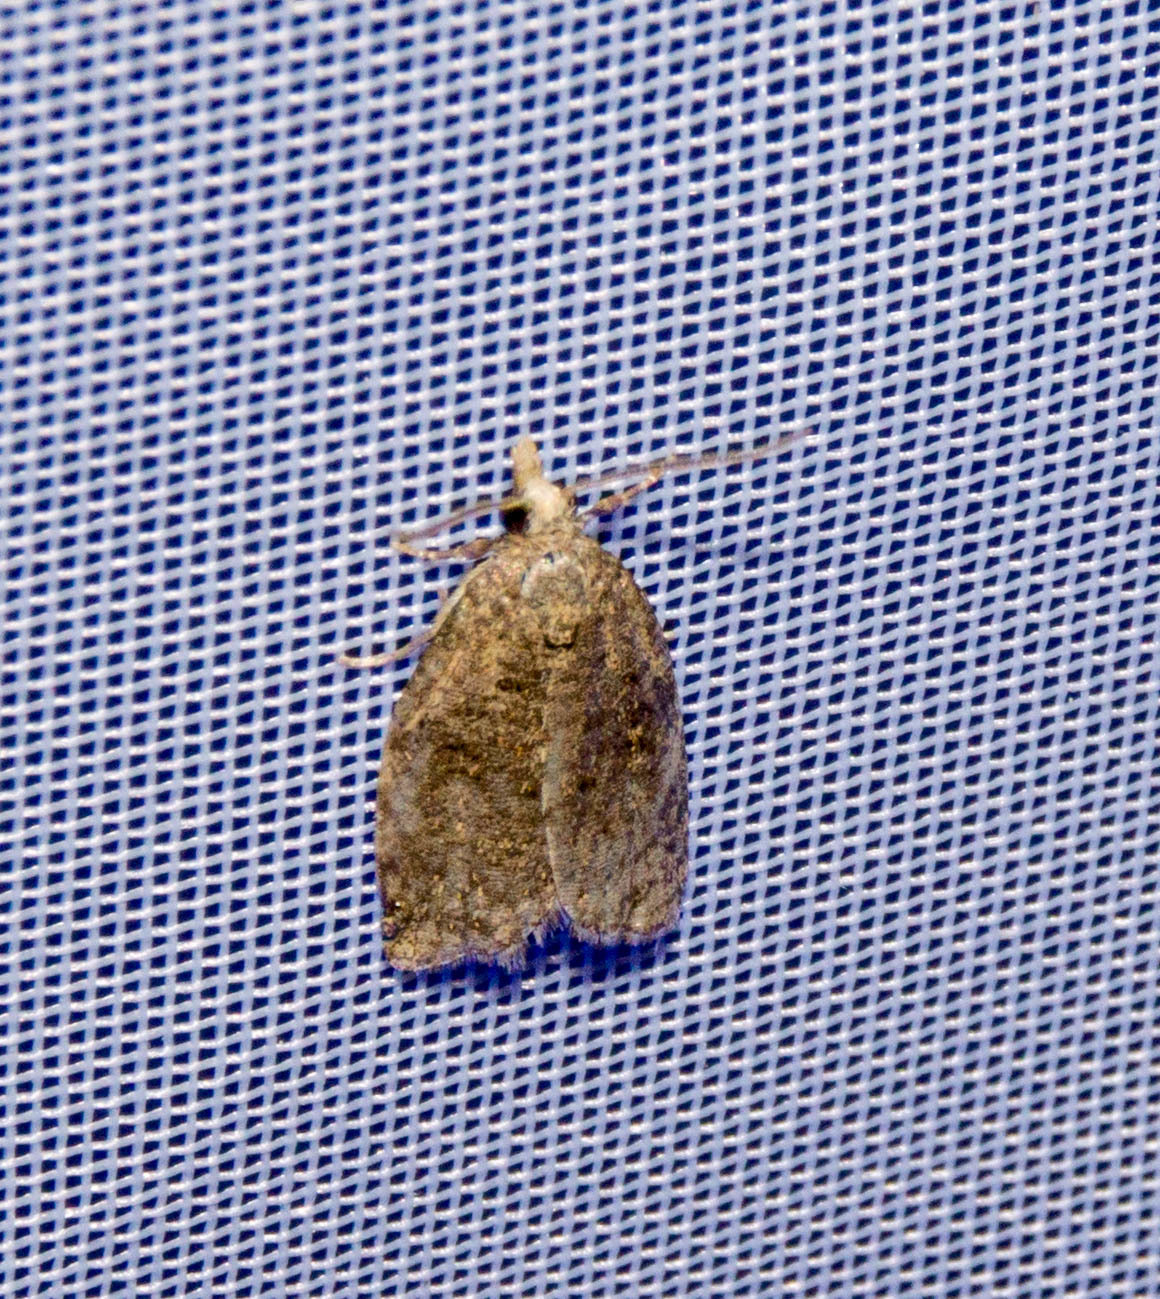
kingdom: Animalia
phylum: Arthropoda
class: Insecta
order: Lepidoptera
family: Tortricidae
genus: Capua
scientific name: Capua vulgana
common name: Common twist
